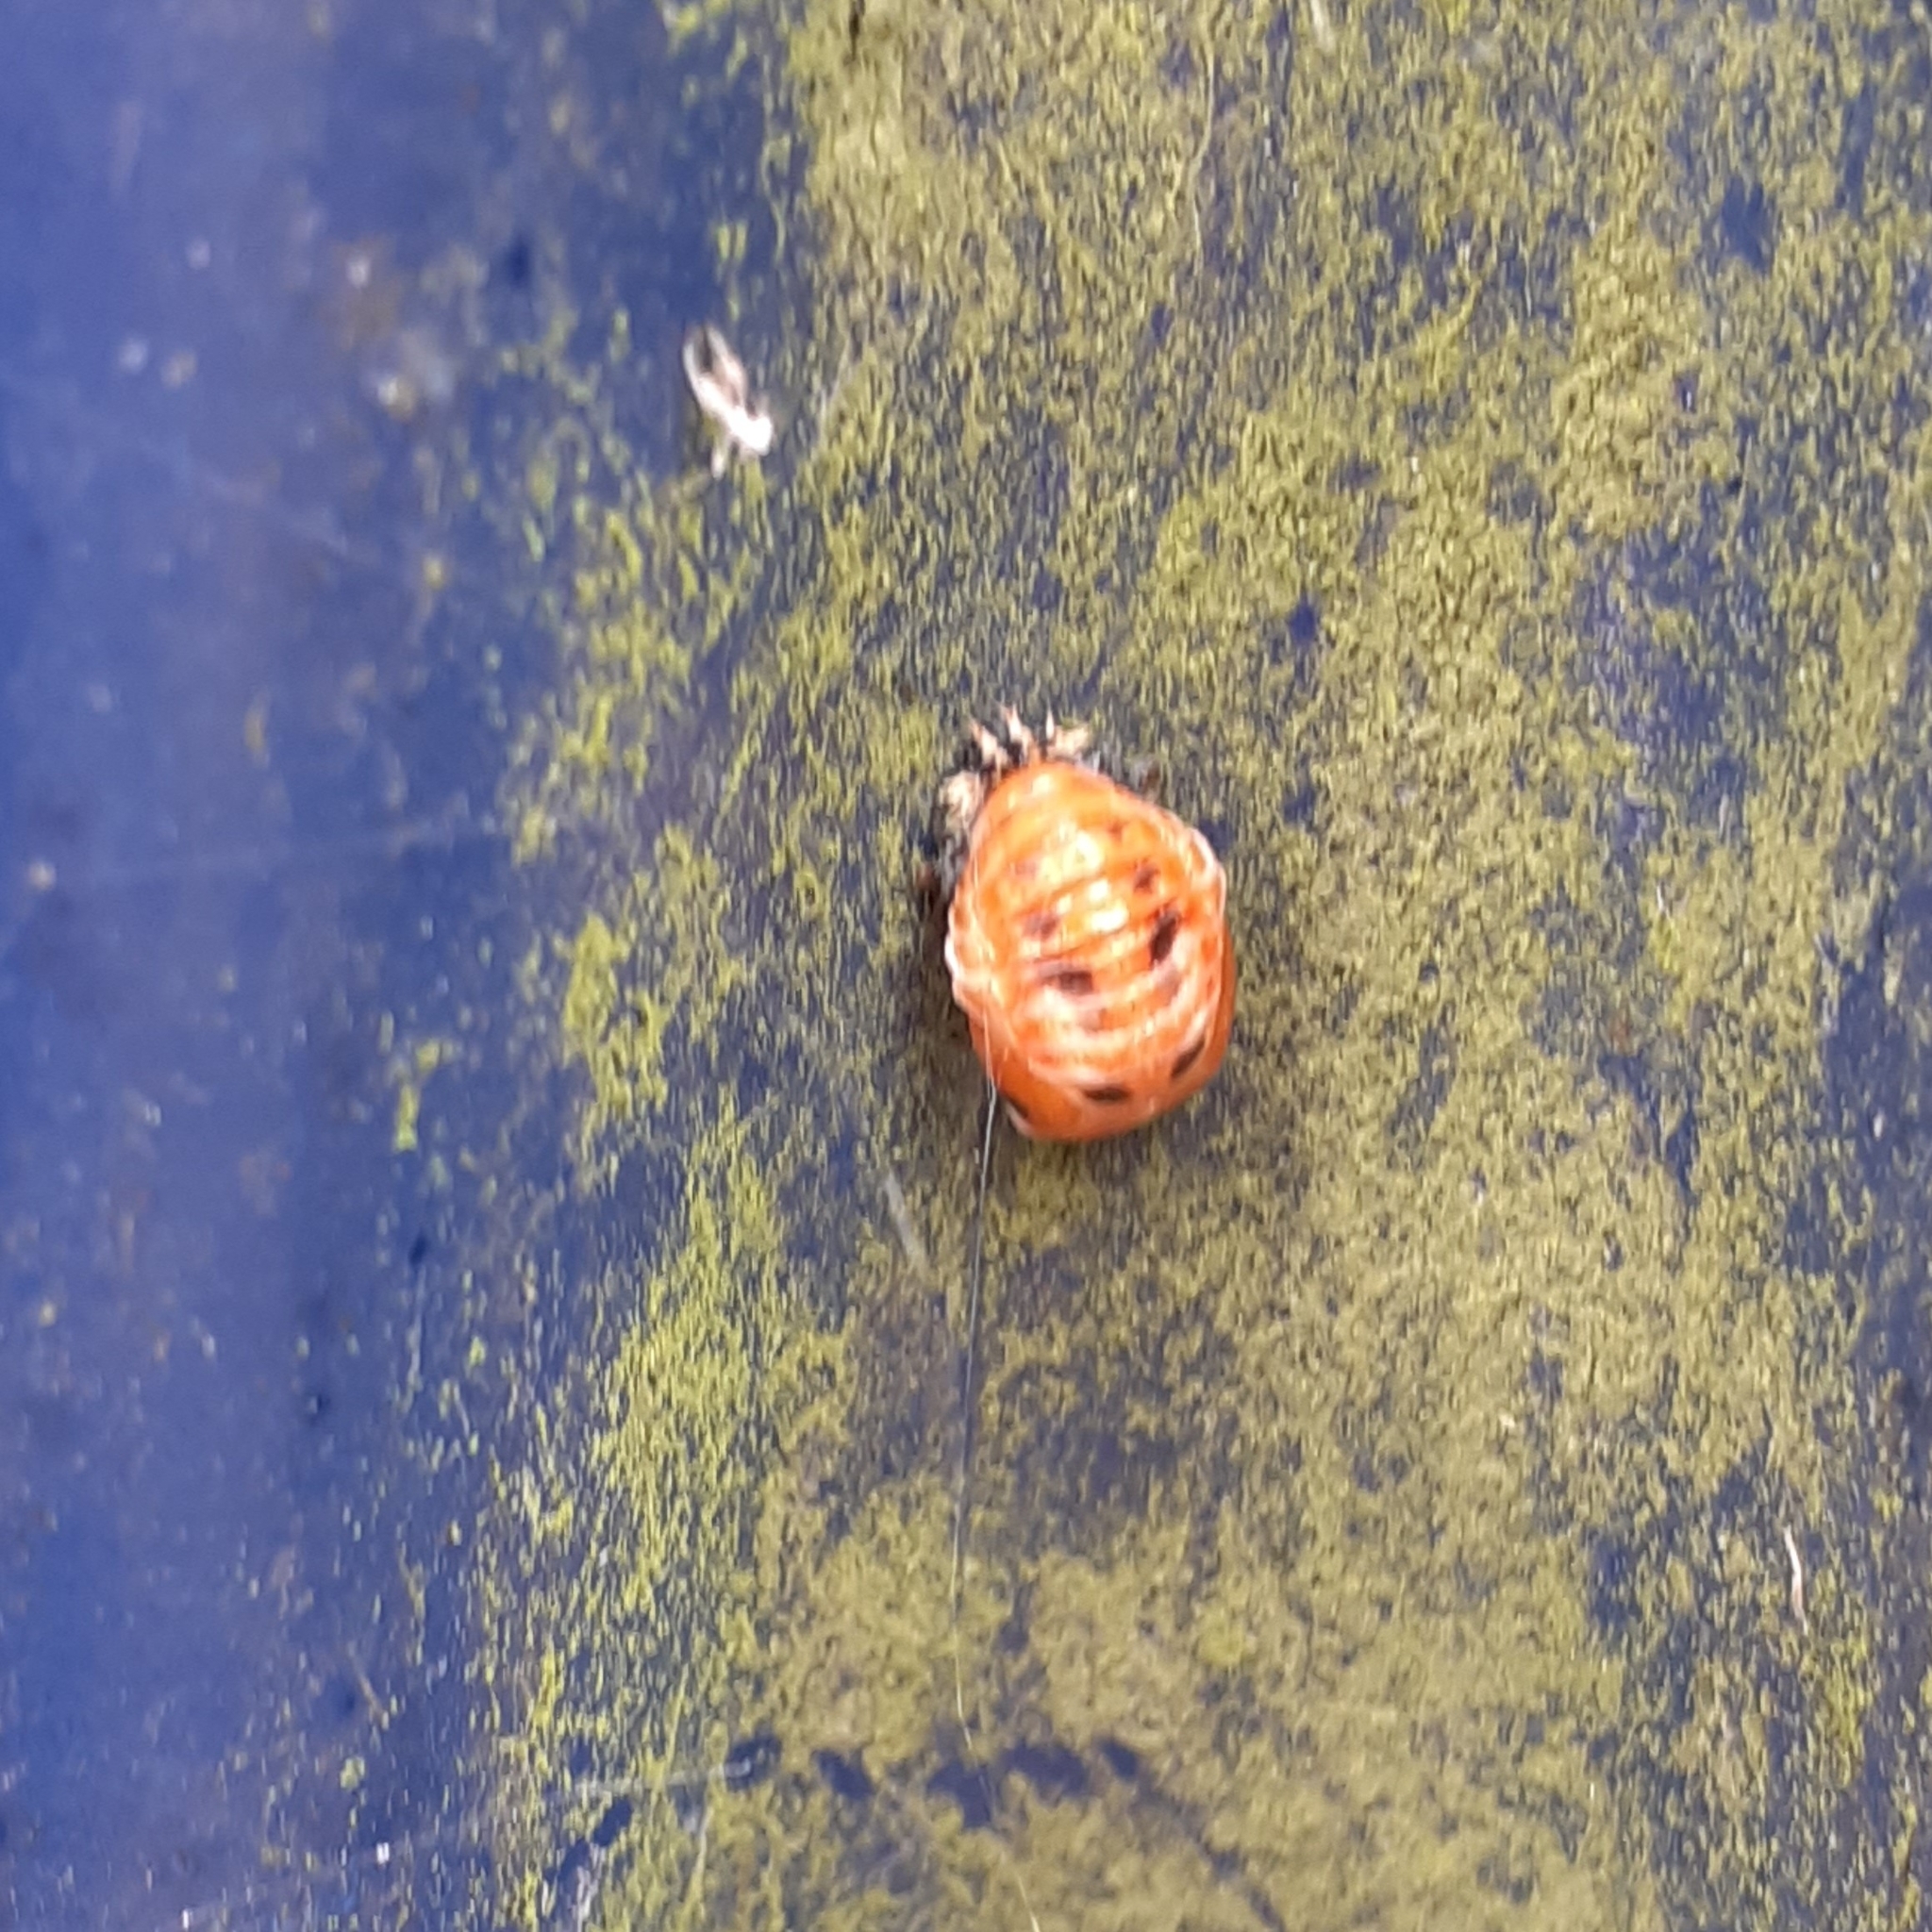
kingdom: Animalia
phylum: Arthropoda
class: Insecta
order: Coleoptera
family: Coccinellidae
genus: Harmonia
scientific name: Harmonia axyridis
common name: Harlequin ladybird
